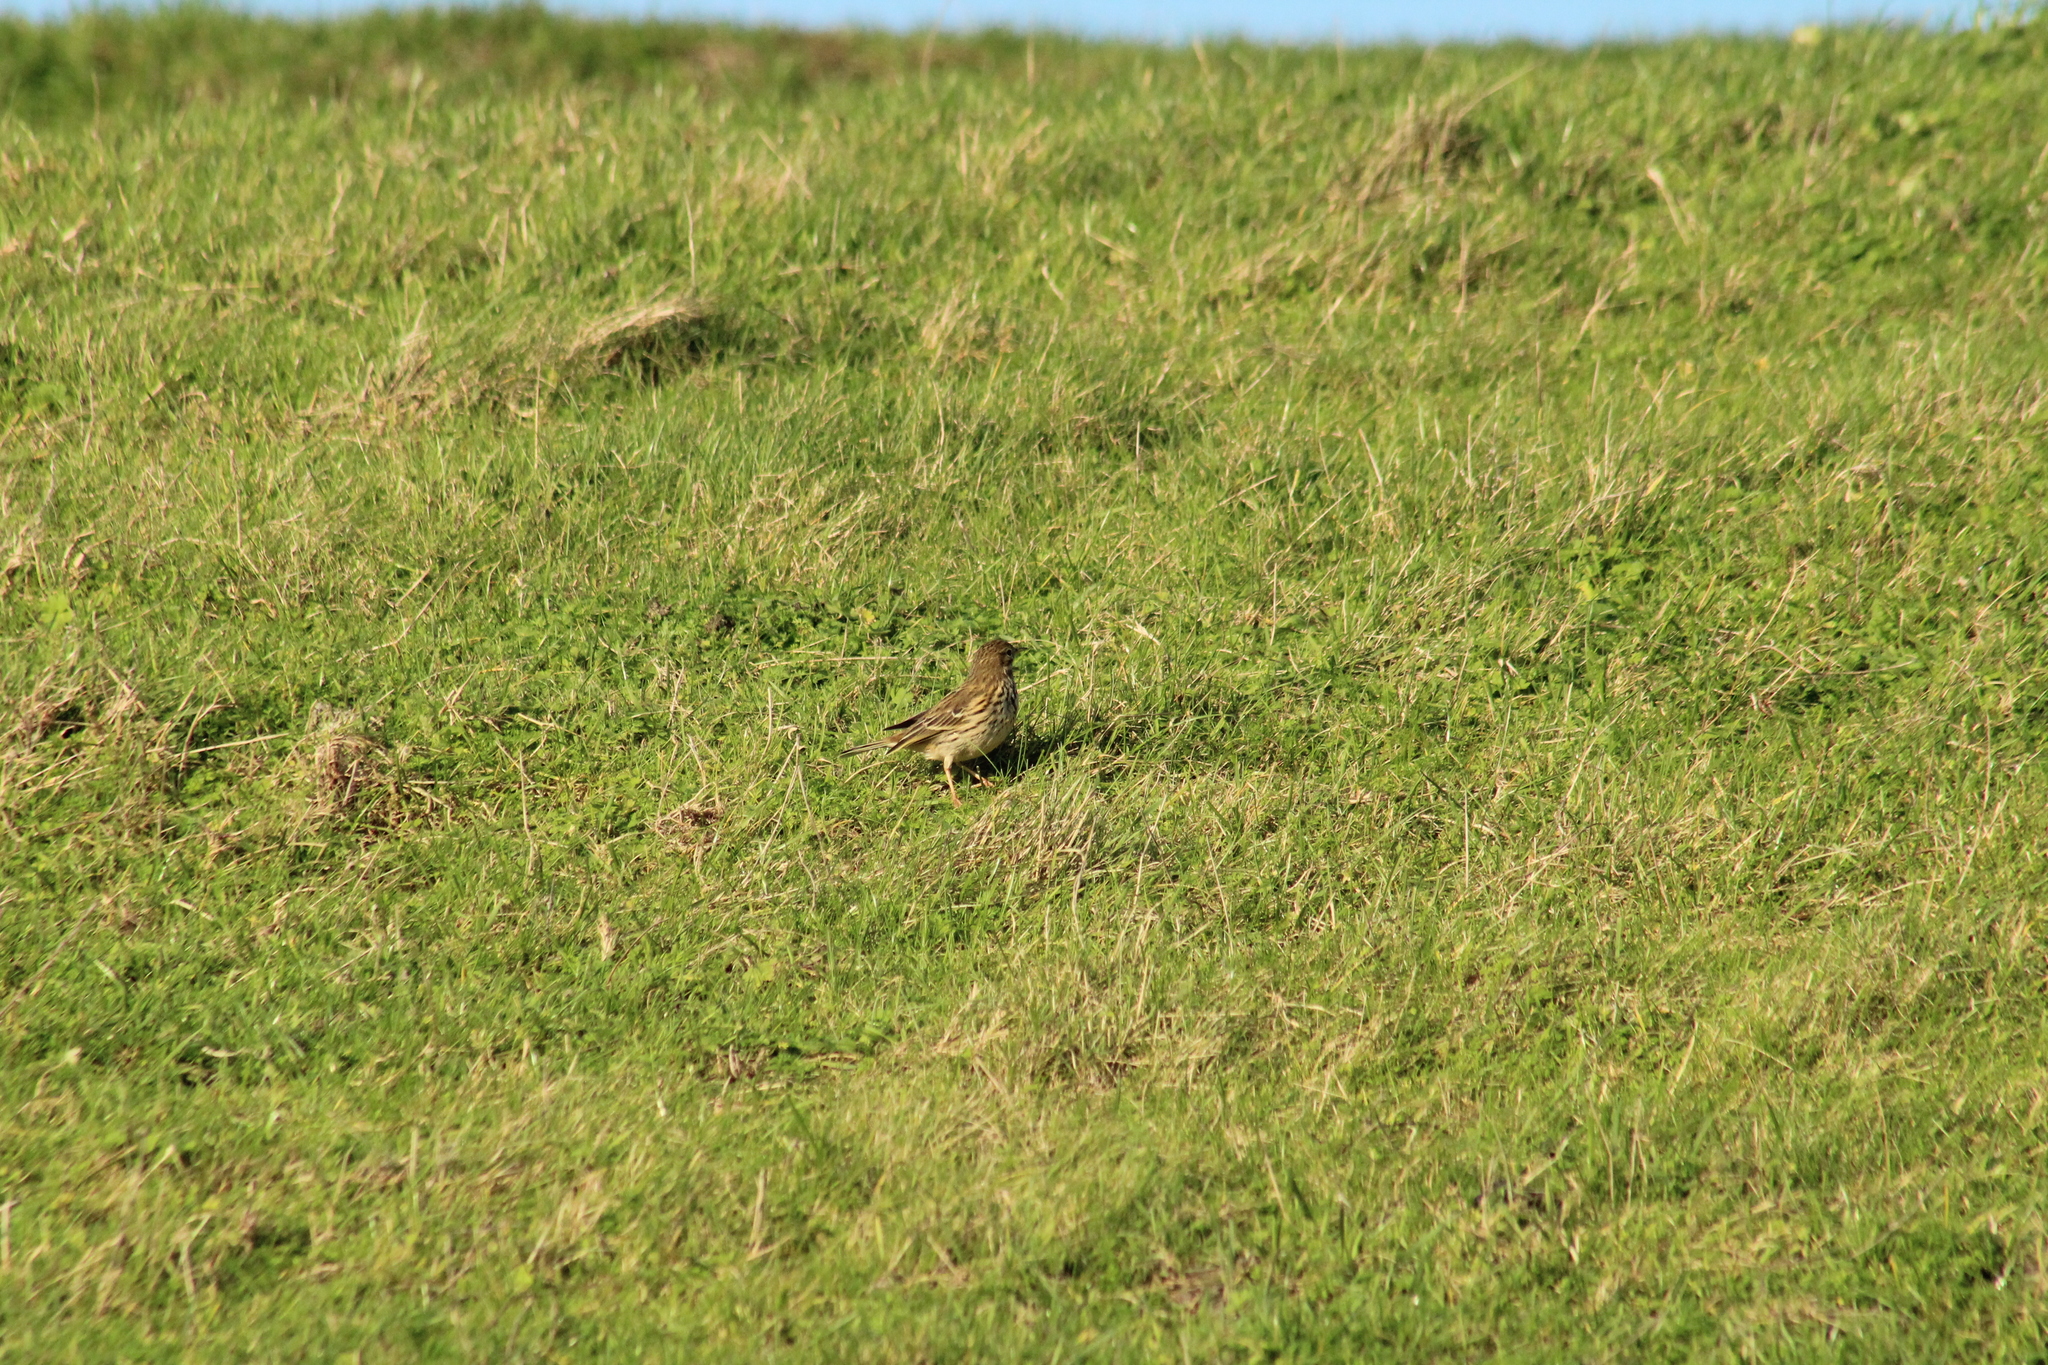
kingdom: Animalia
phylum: Chordata
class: Aves
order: Passeriformes
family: Motacillidae
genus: Anthus
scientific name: Anthus pratensis
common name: Meadow pipit
